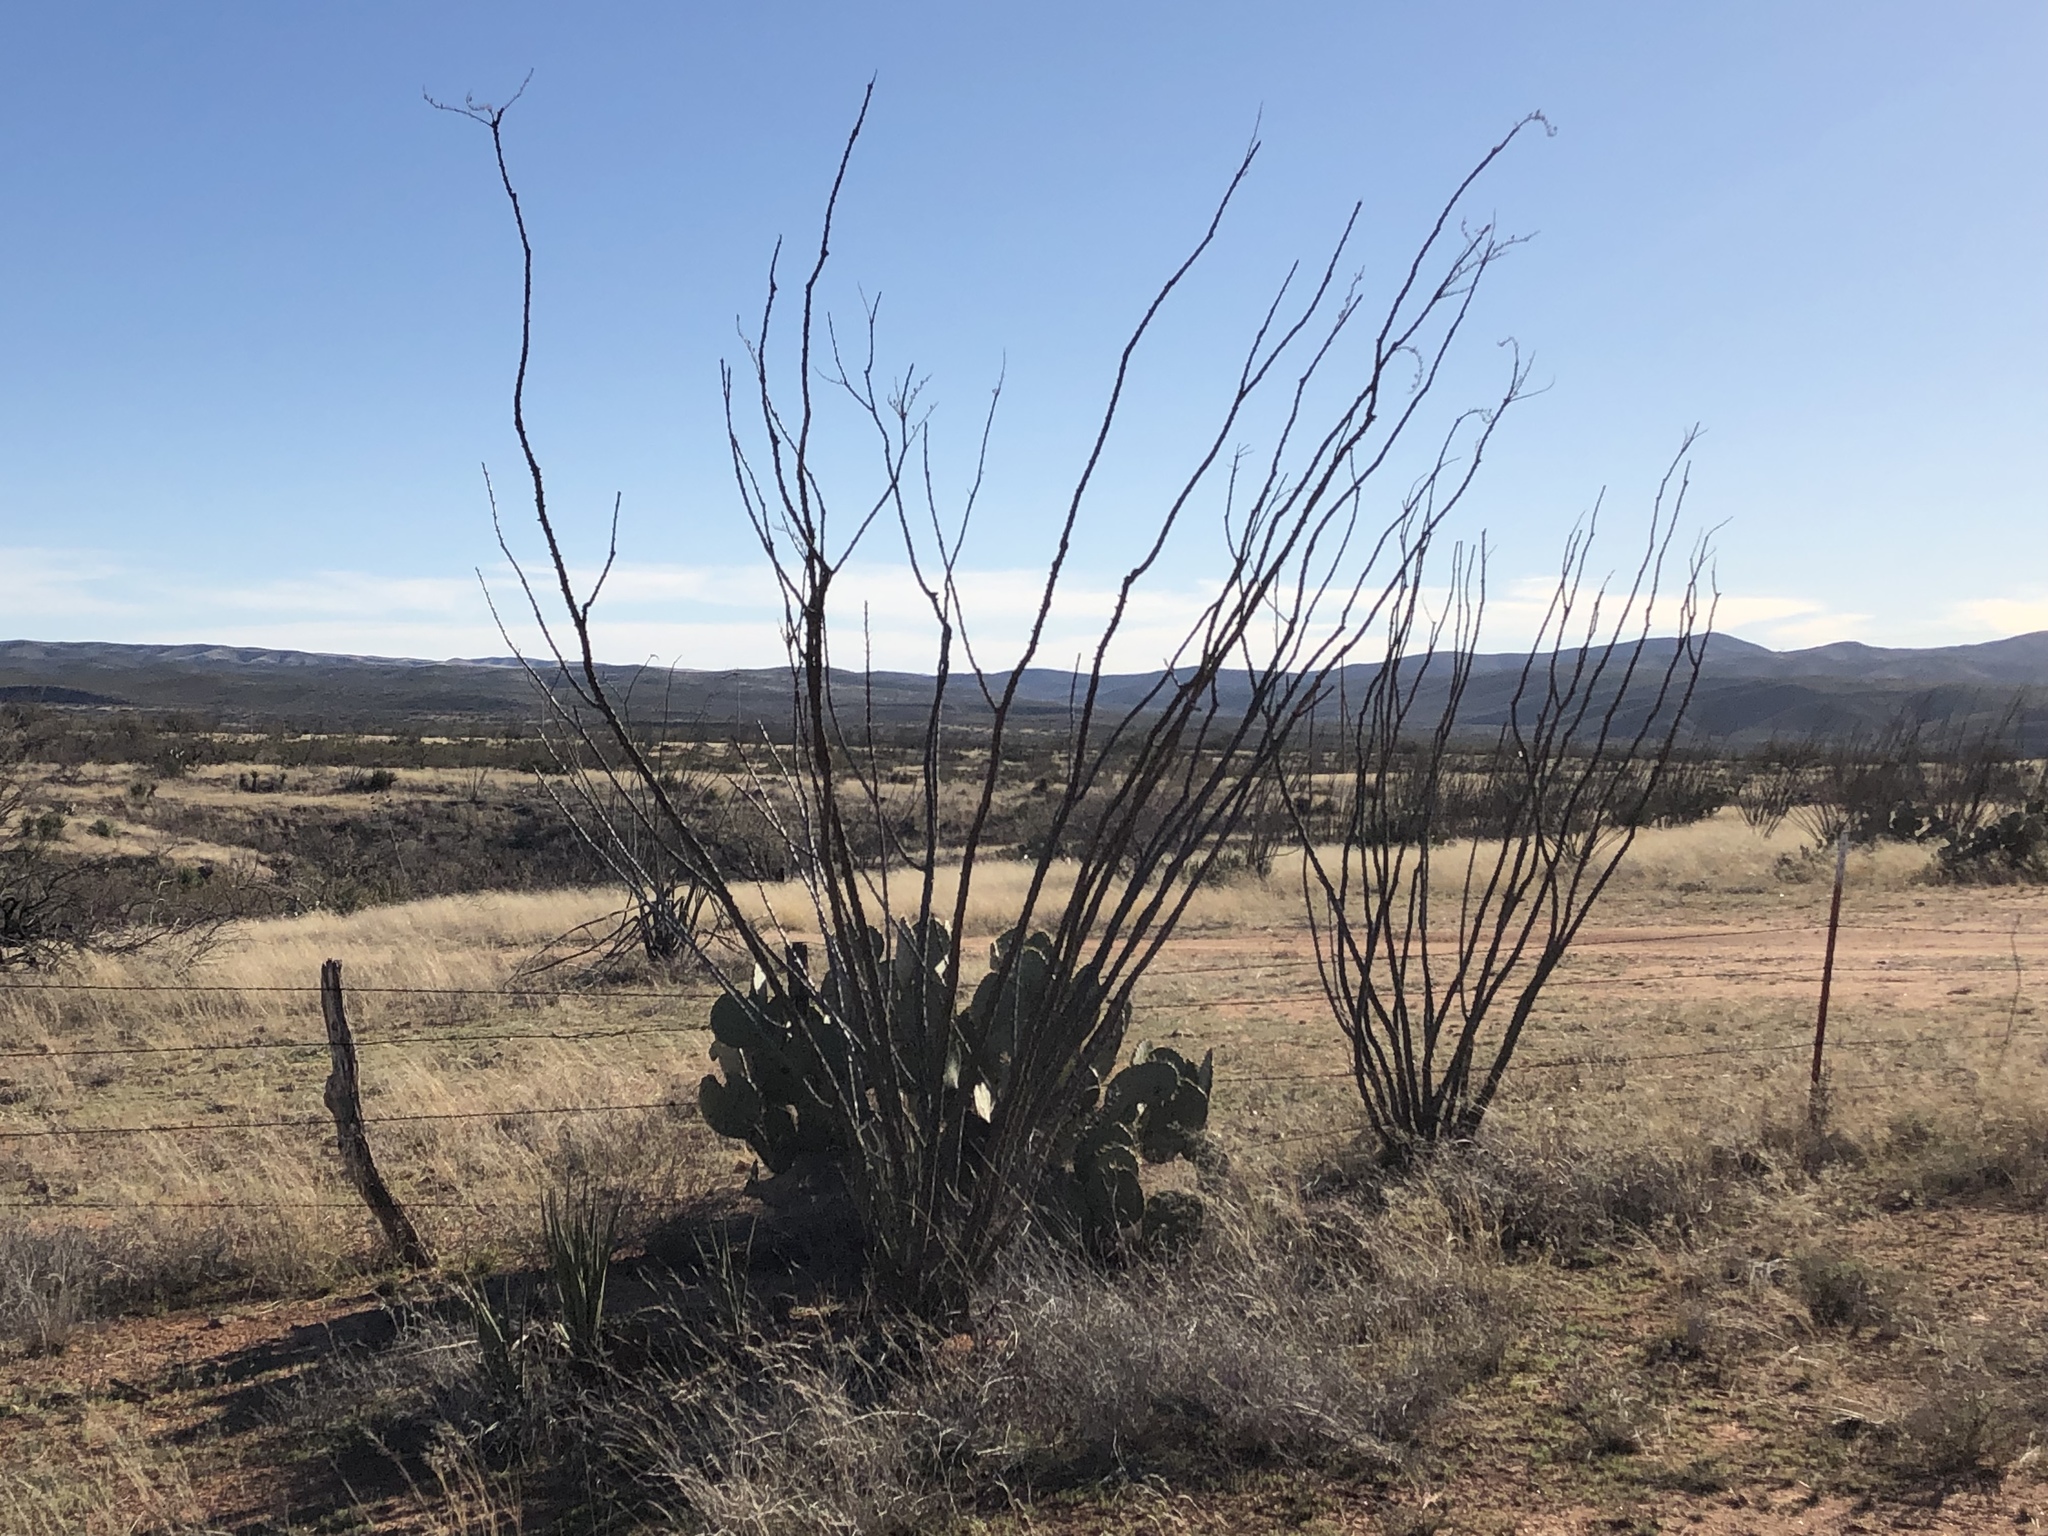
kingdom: Plantae
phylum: Tracheophyta
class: Magnoliopsida
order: Ericales
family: Fouquieriaceae
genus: Fouquieria
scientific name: Fouquieria splendens
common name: Vine-cactus
